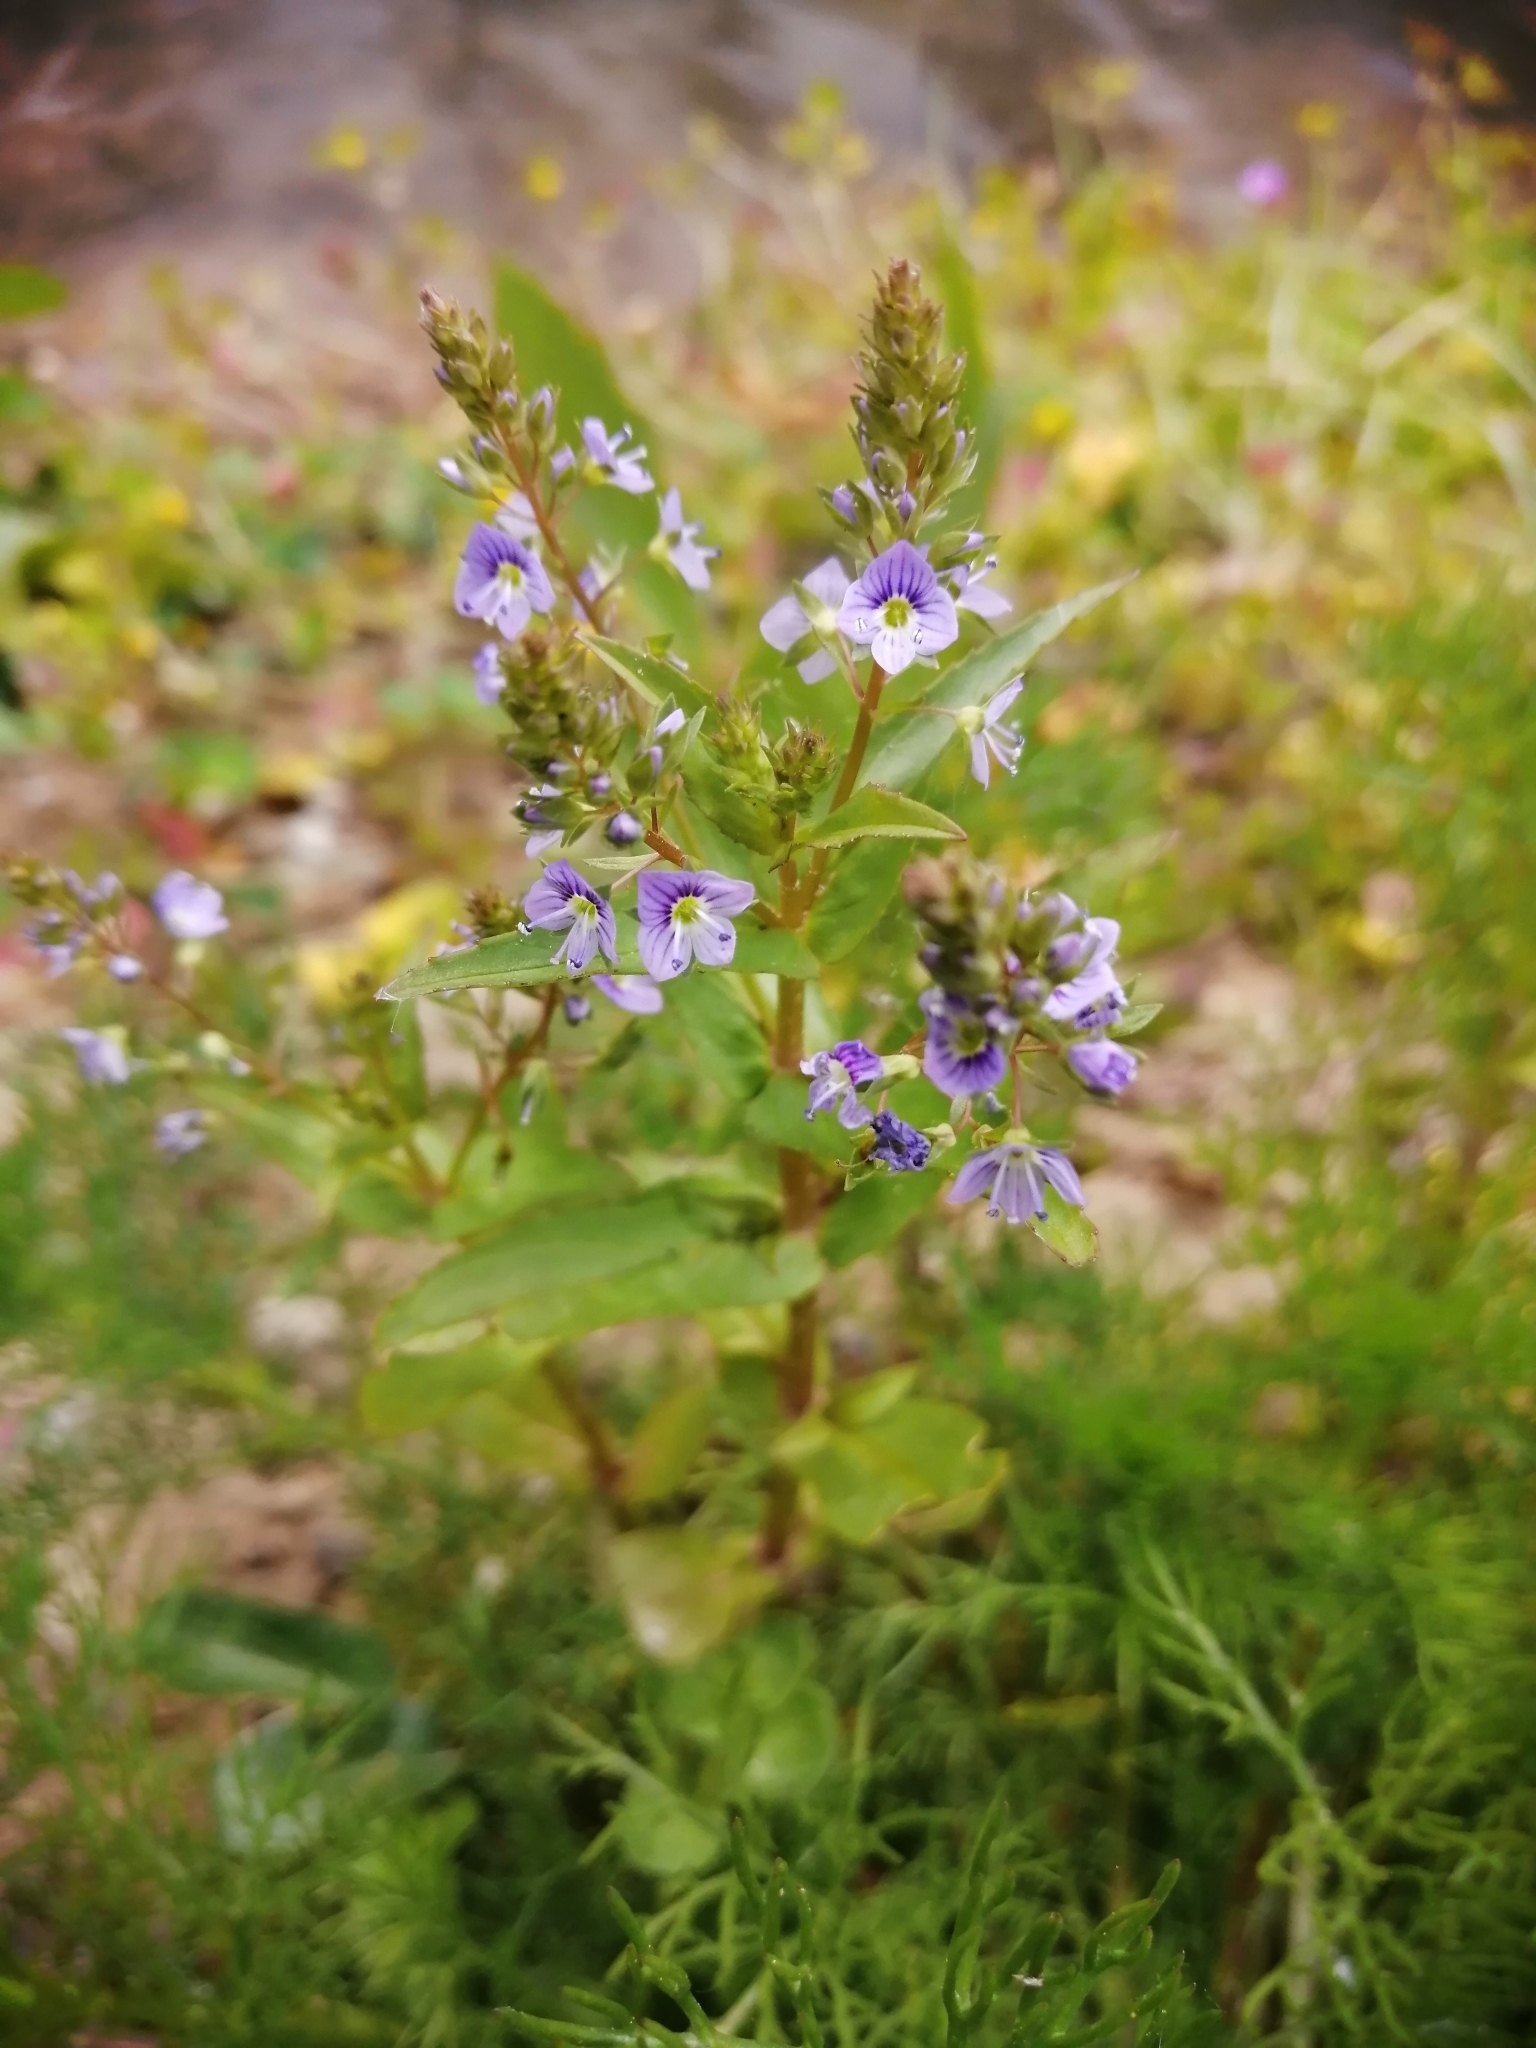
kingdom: Plantae
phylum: Tracheophyta
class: Magnoliopsida
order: Lamiales
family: Plantaginaceae
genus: Veronica
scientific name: Veronica anagallis-aquatica
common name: Water speedwell
